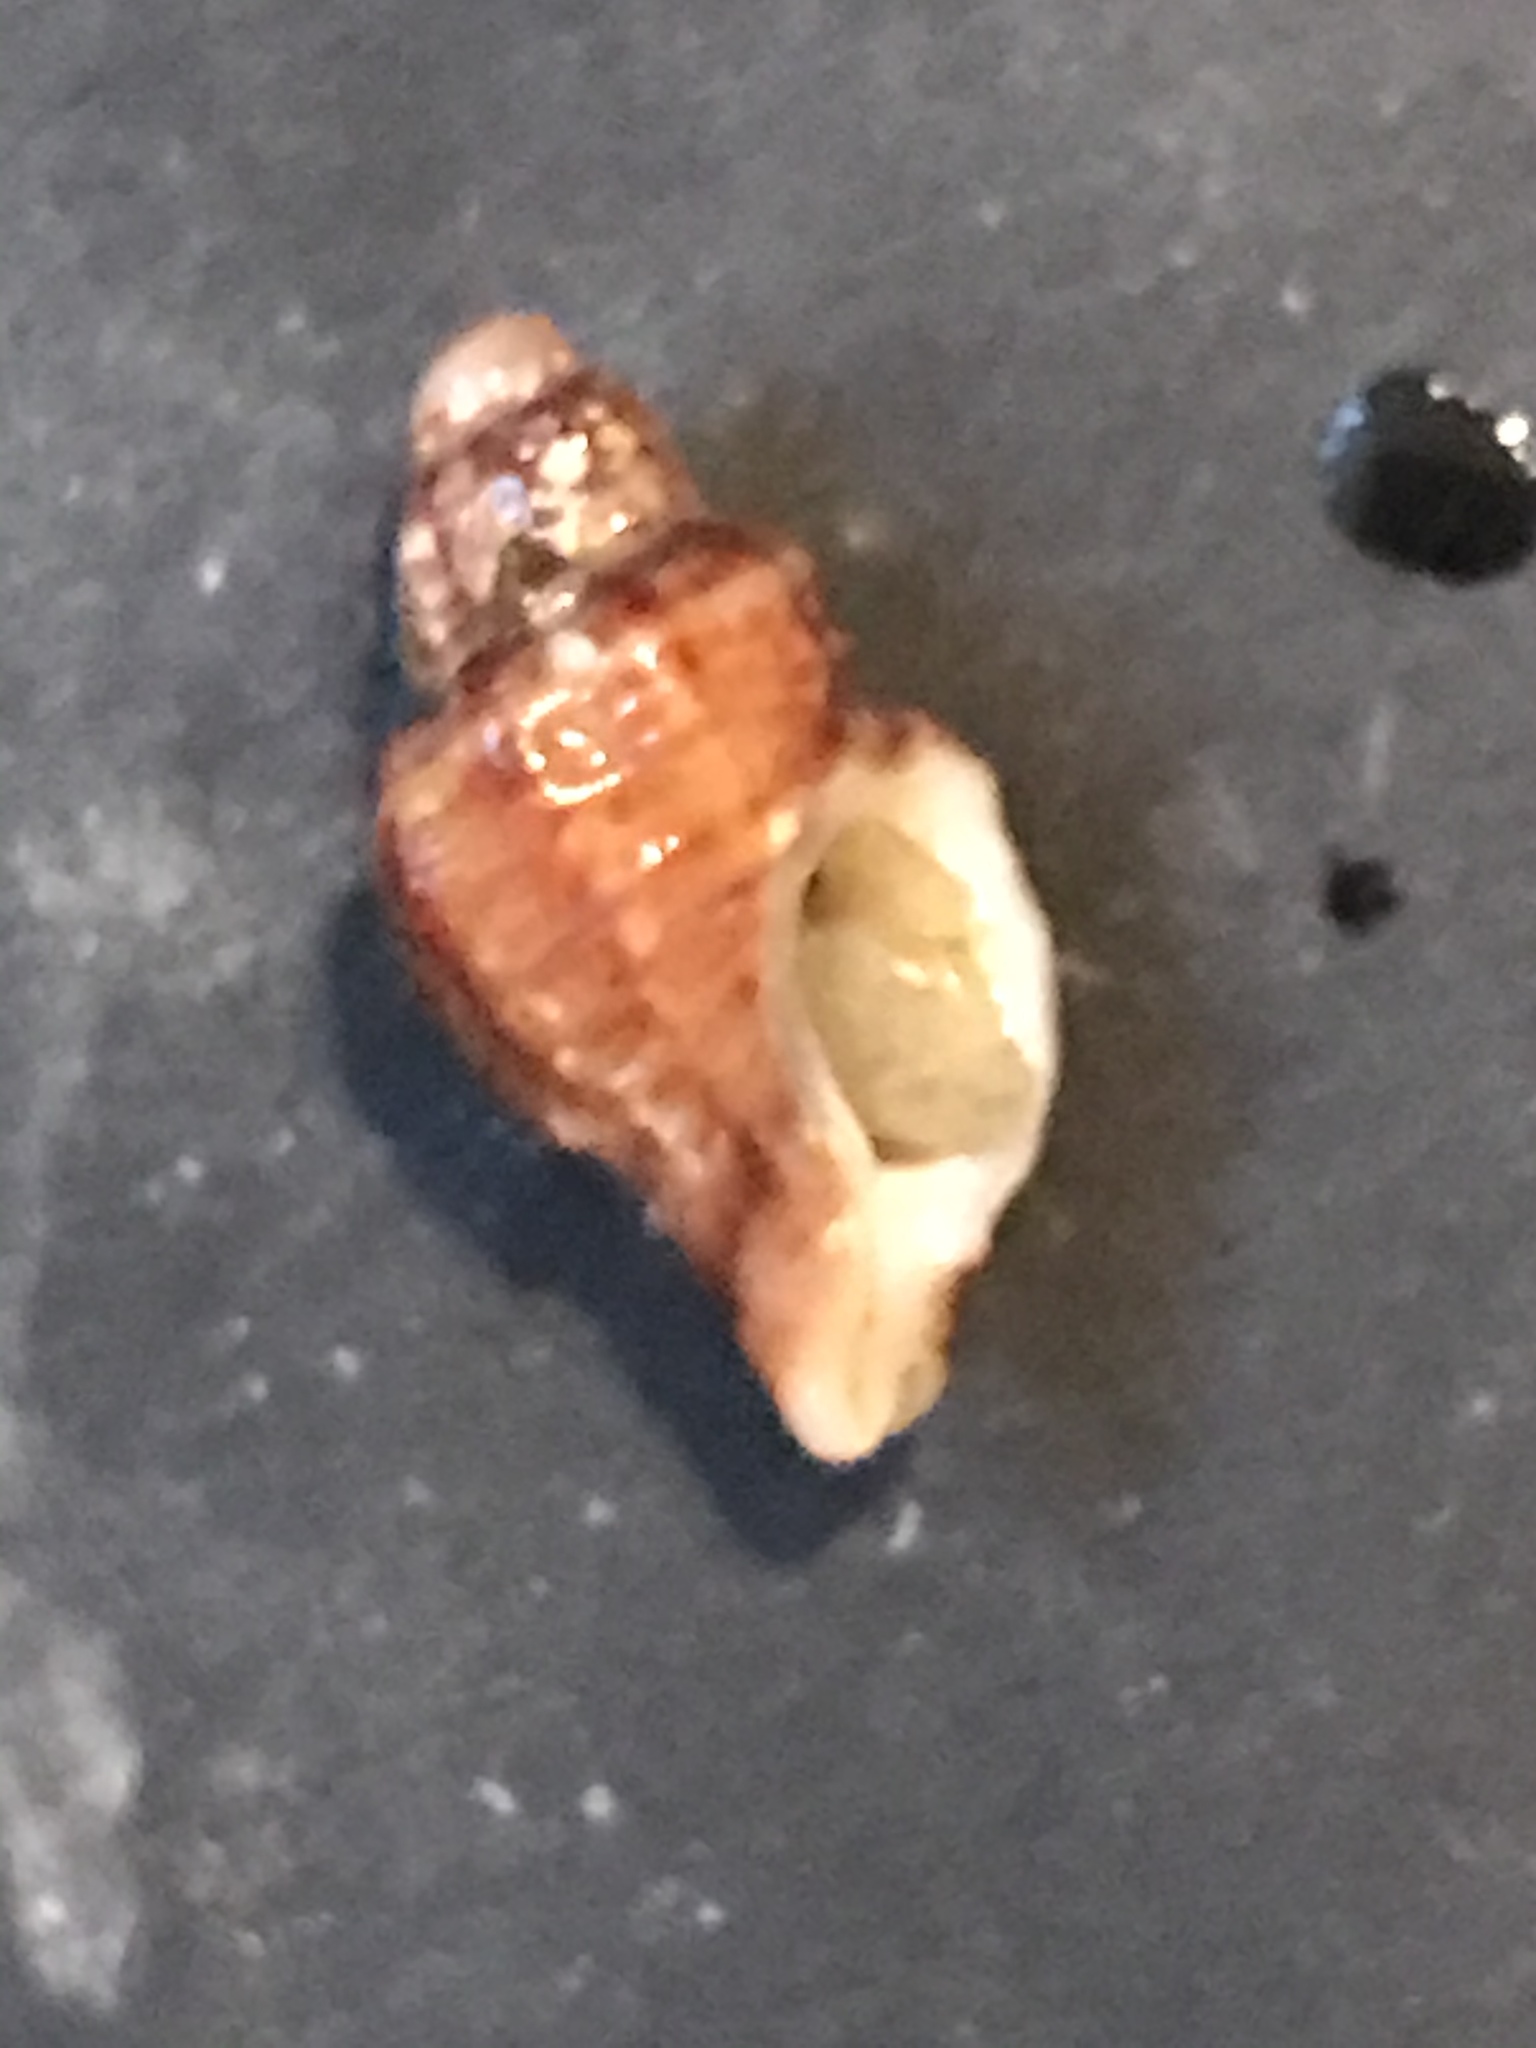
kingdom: Animalia
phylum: Mollusca
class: Gastropoda
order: Neogastropoda
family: Muricidae
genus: Paciocinebrina
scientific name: Paciocinebrina atropurpurea
